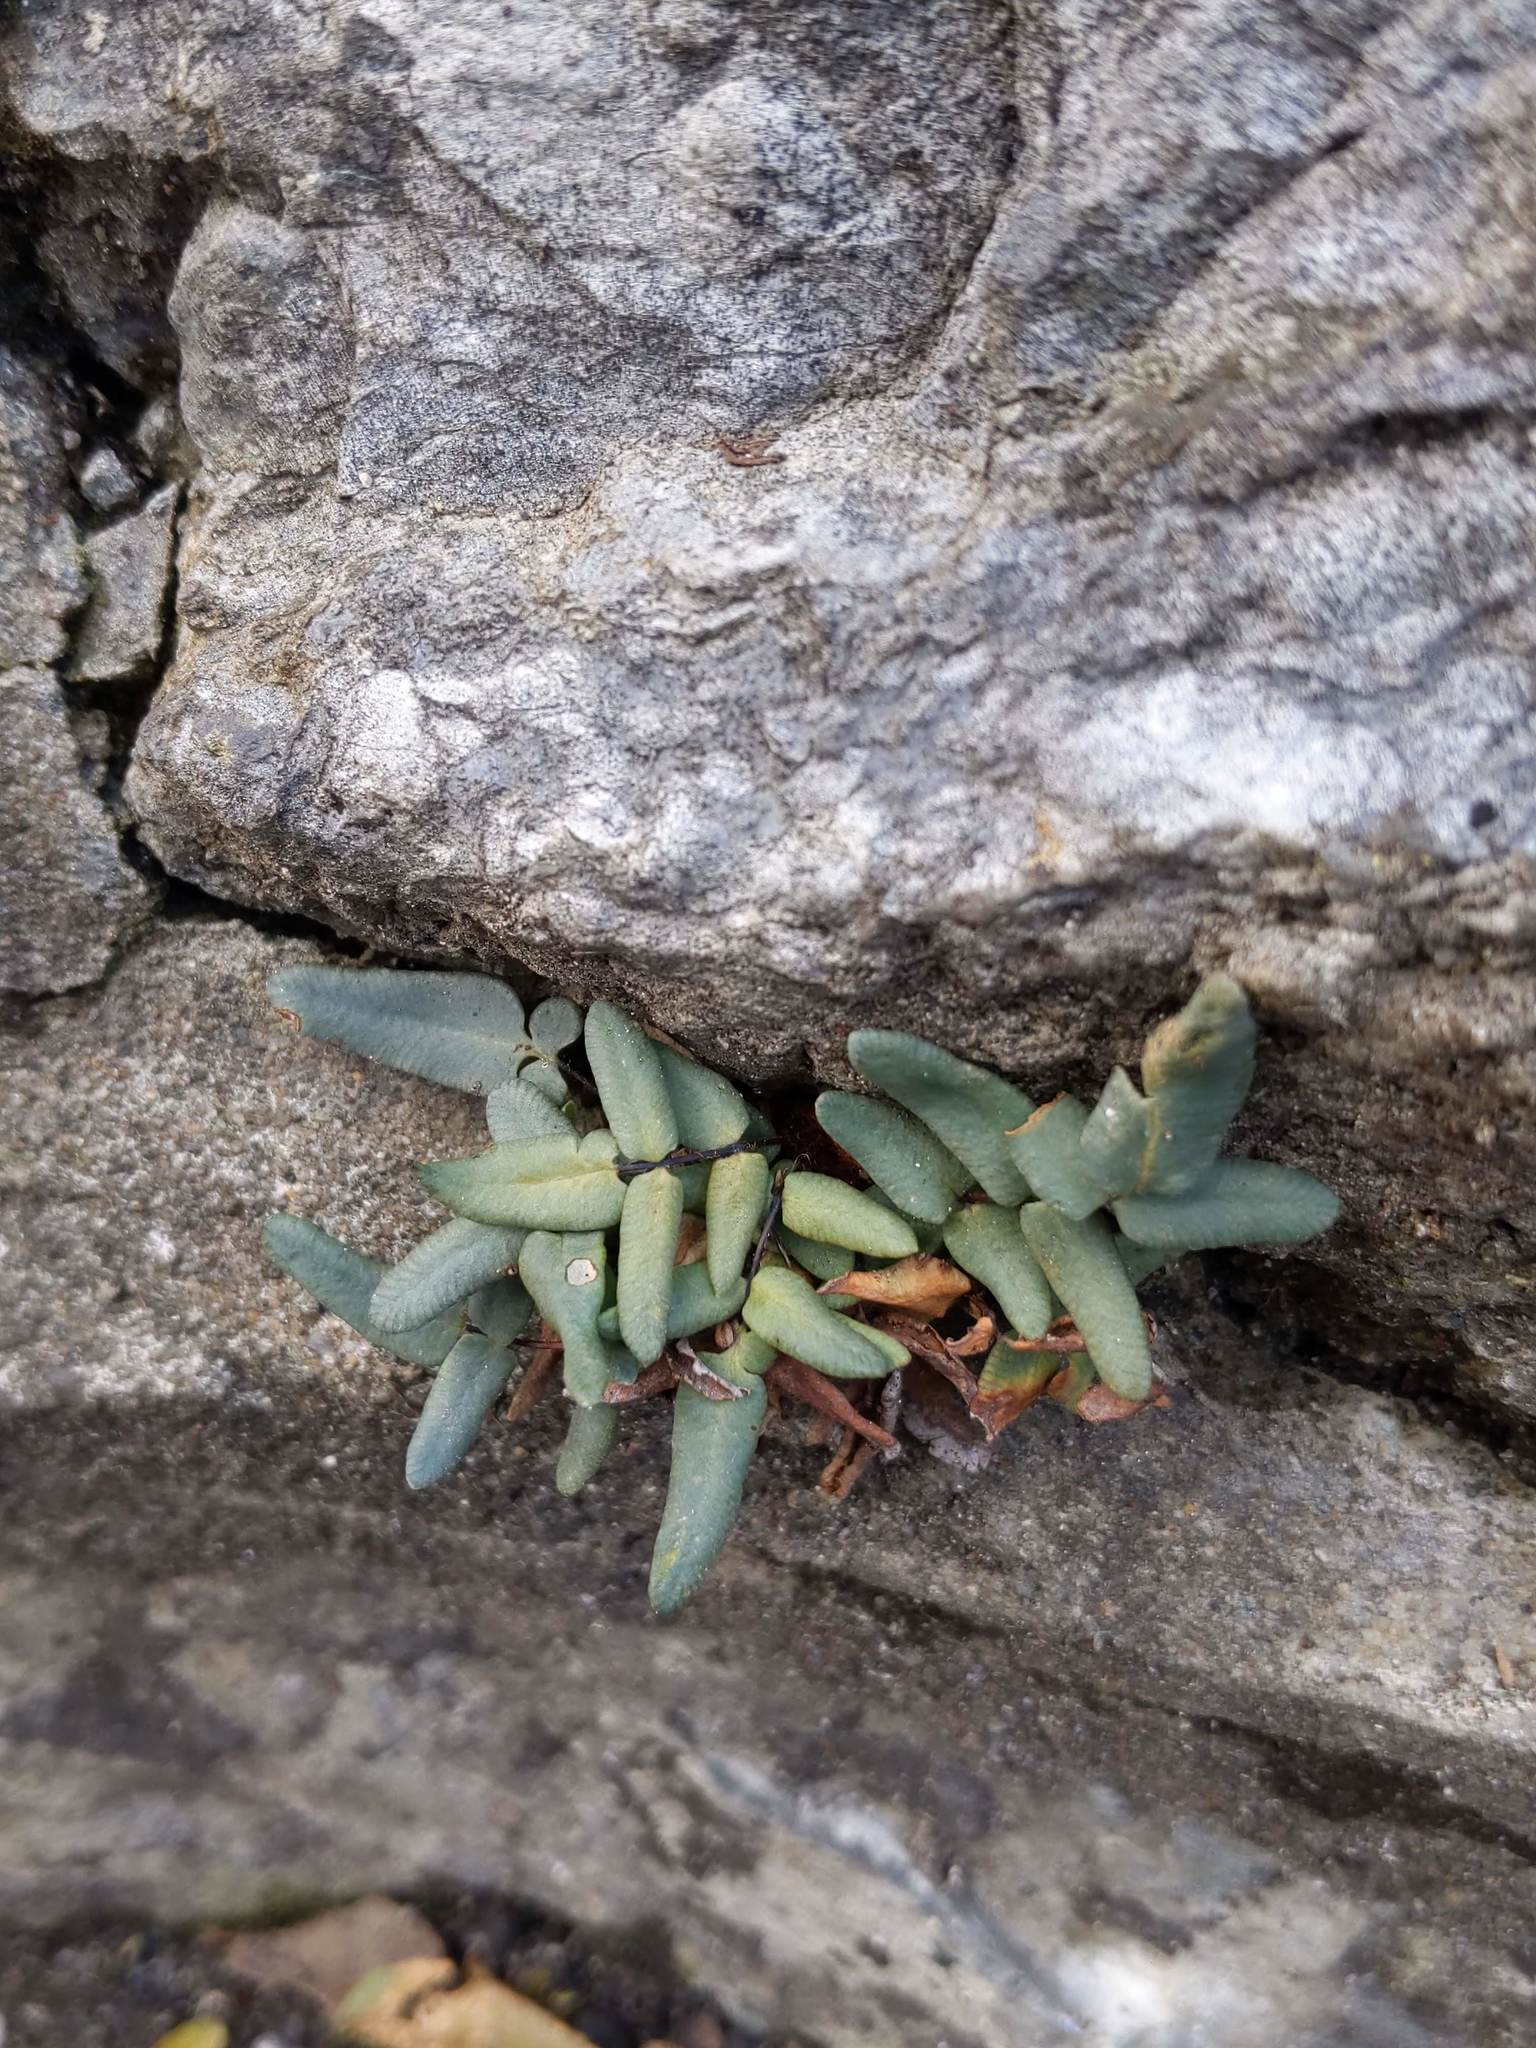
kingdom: Plantae
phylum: Tracheophyta
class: Polypodiopsida
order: Polypodiales
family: Pteridaceae
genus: Pellaea
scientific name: Pellaea glabella
